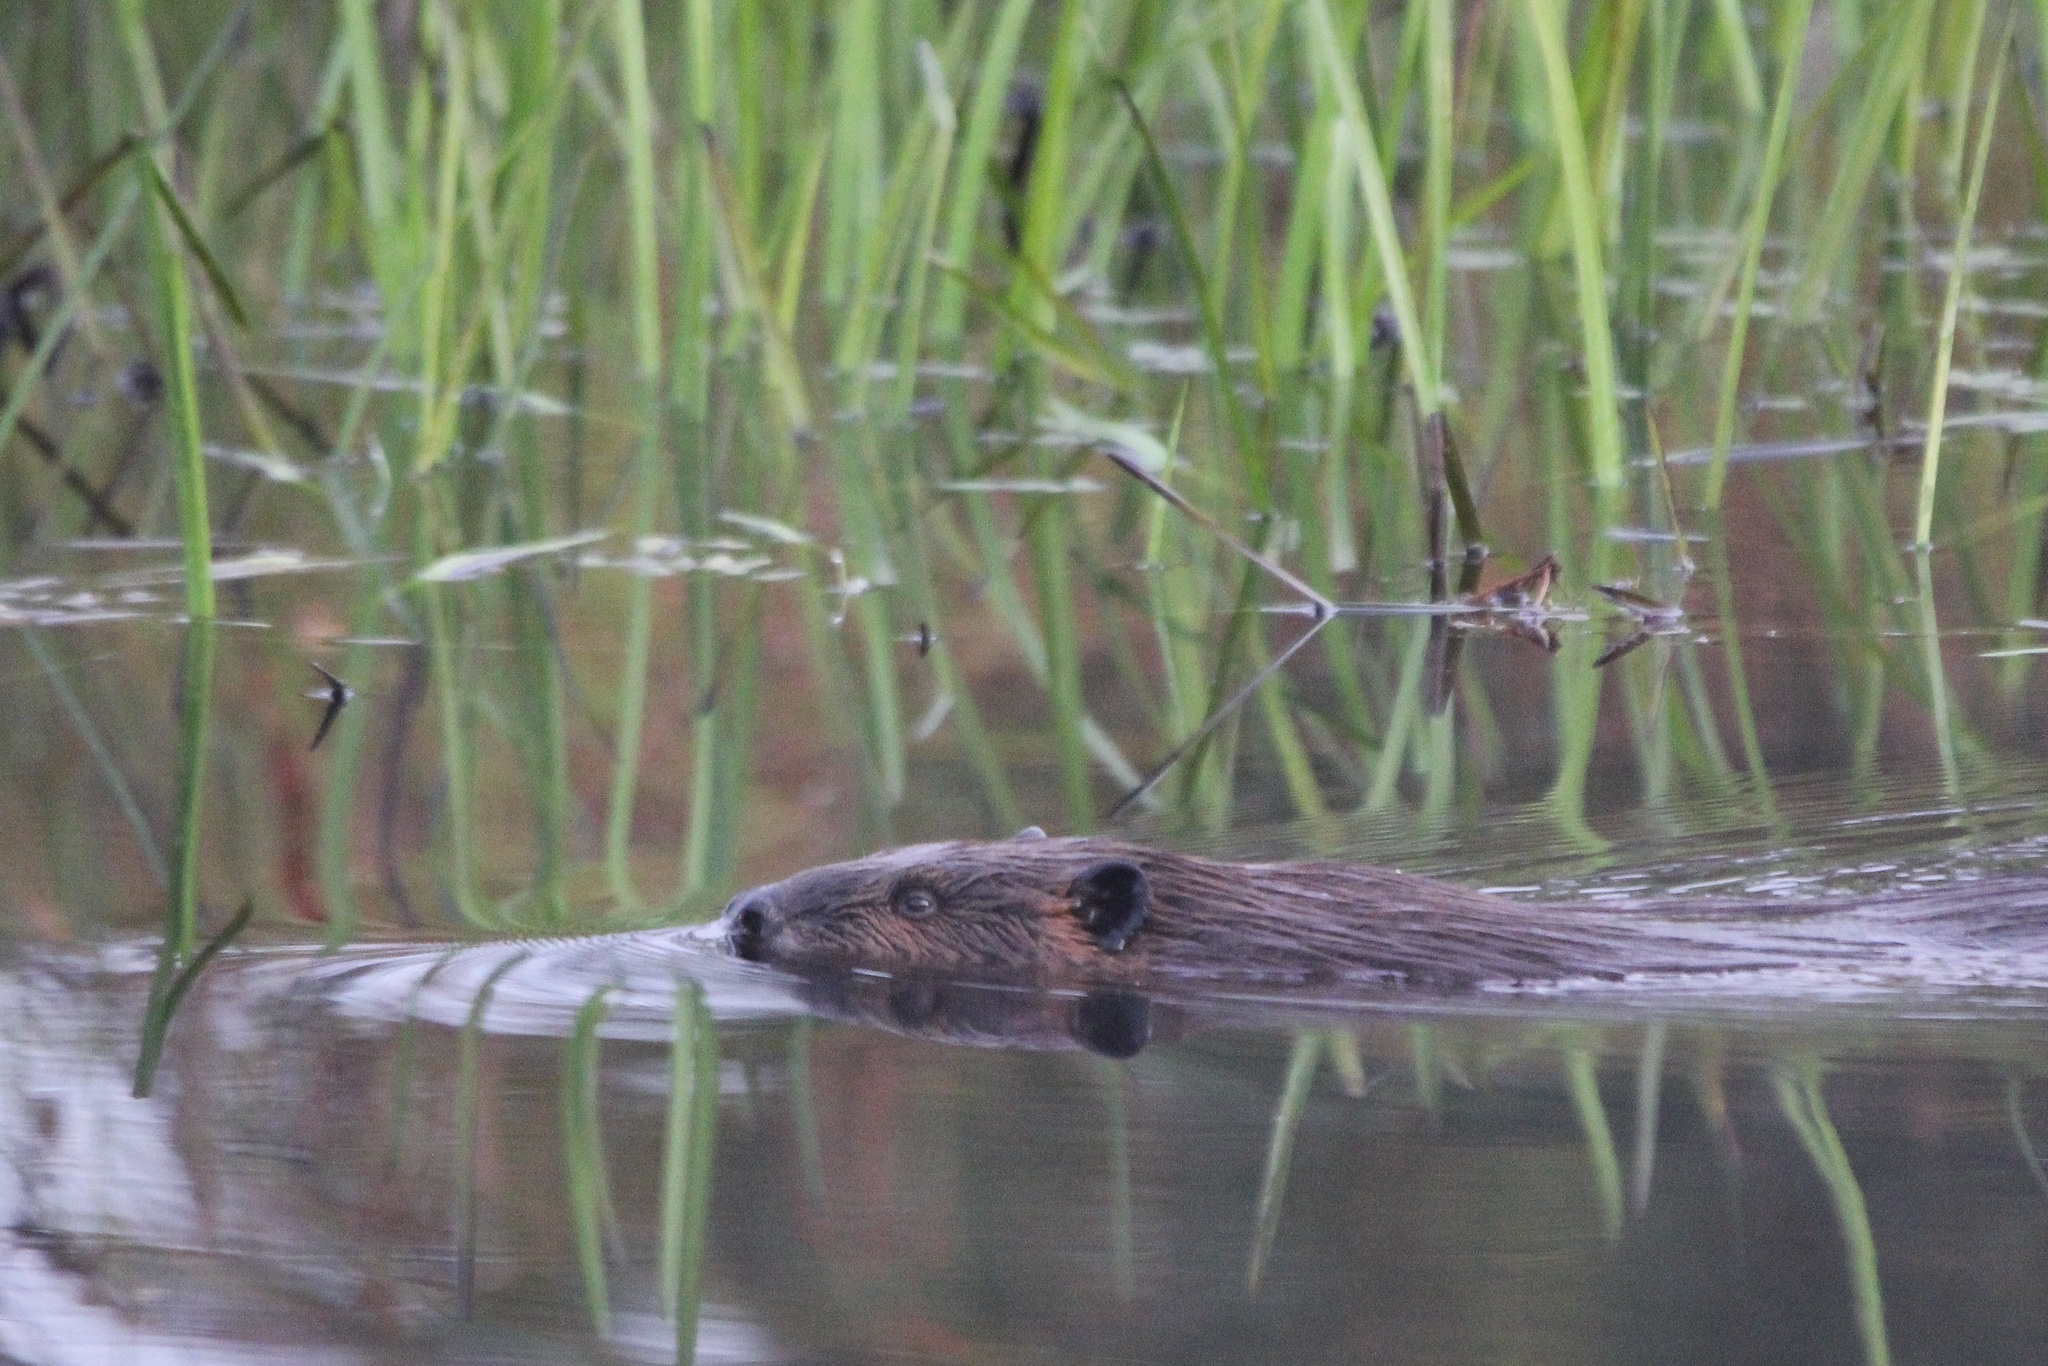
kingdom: Animalia
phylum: Chordata
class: Mammalia
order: Rodentia
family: Castoridae
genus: Castor
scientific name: Castor canadensis
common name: American beaver
